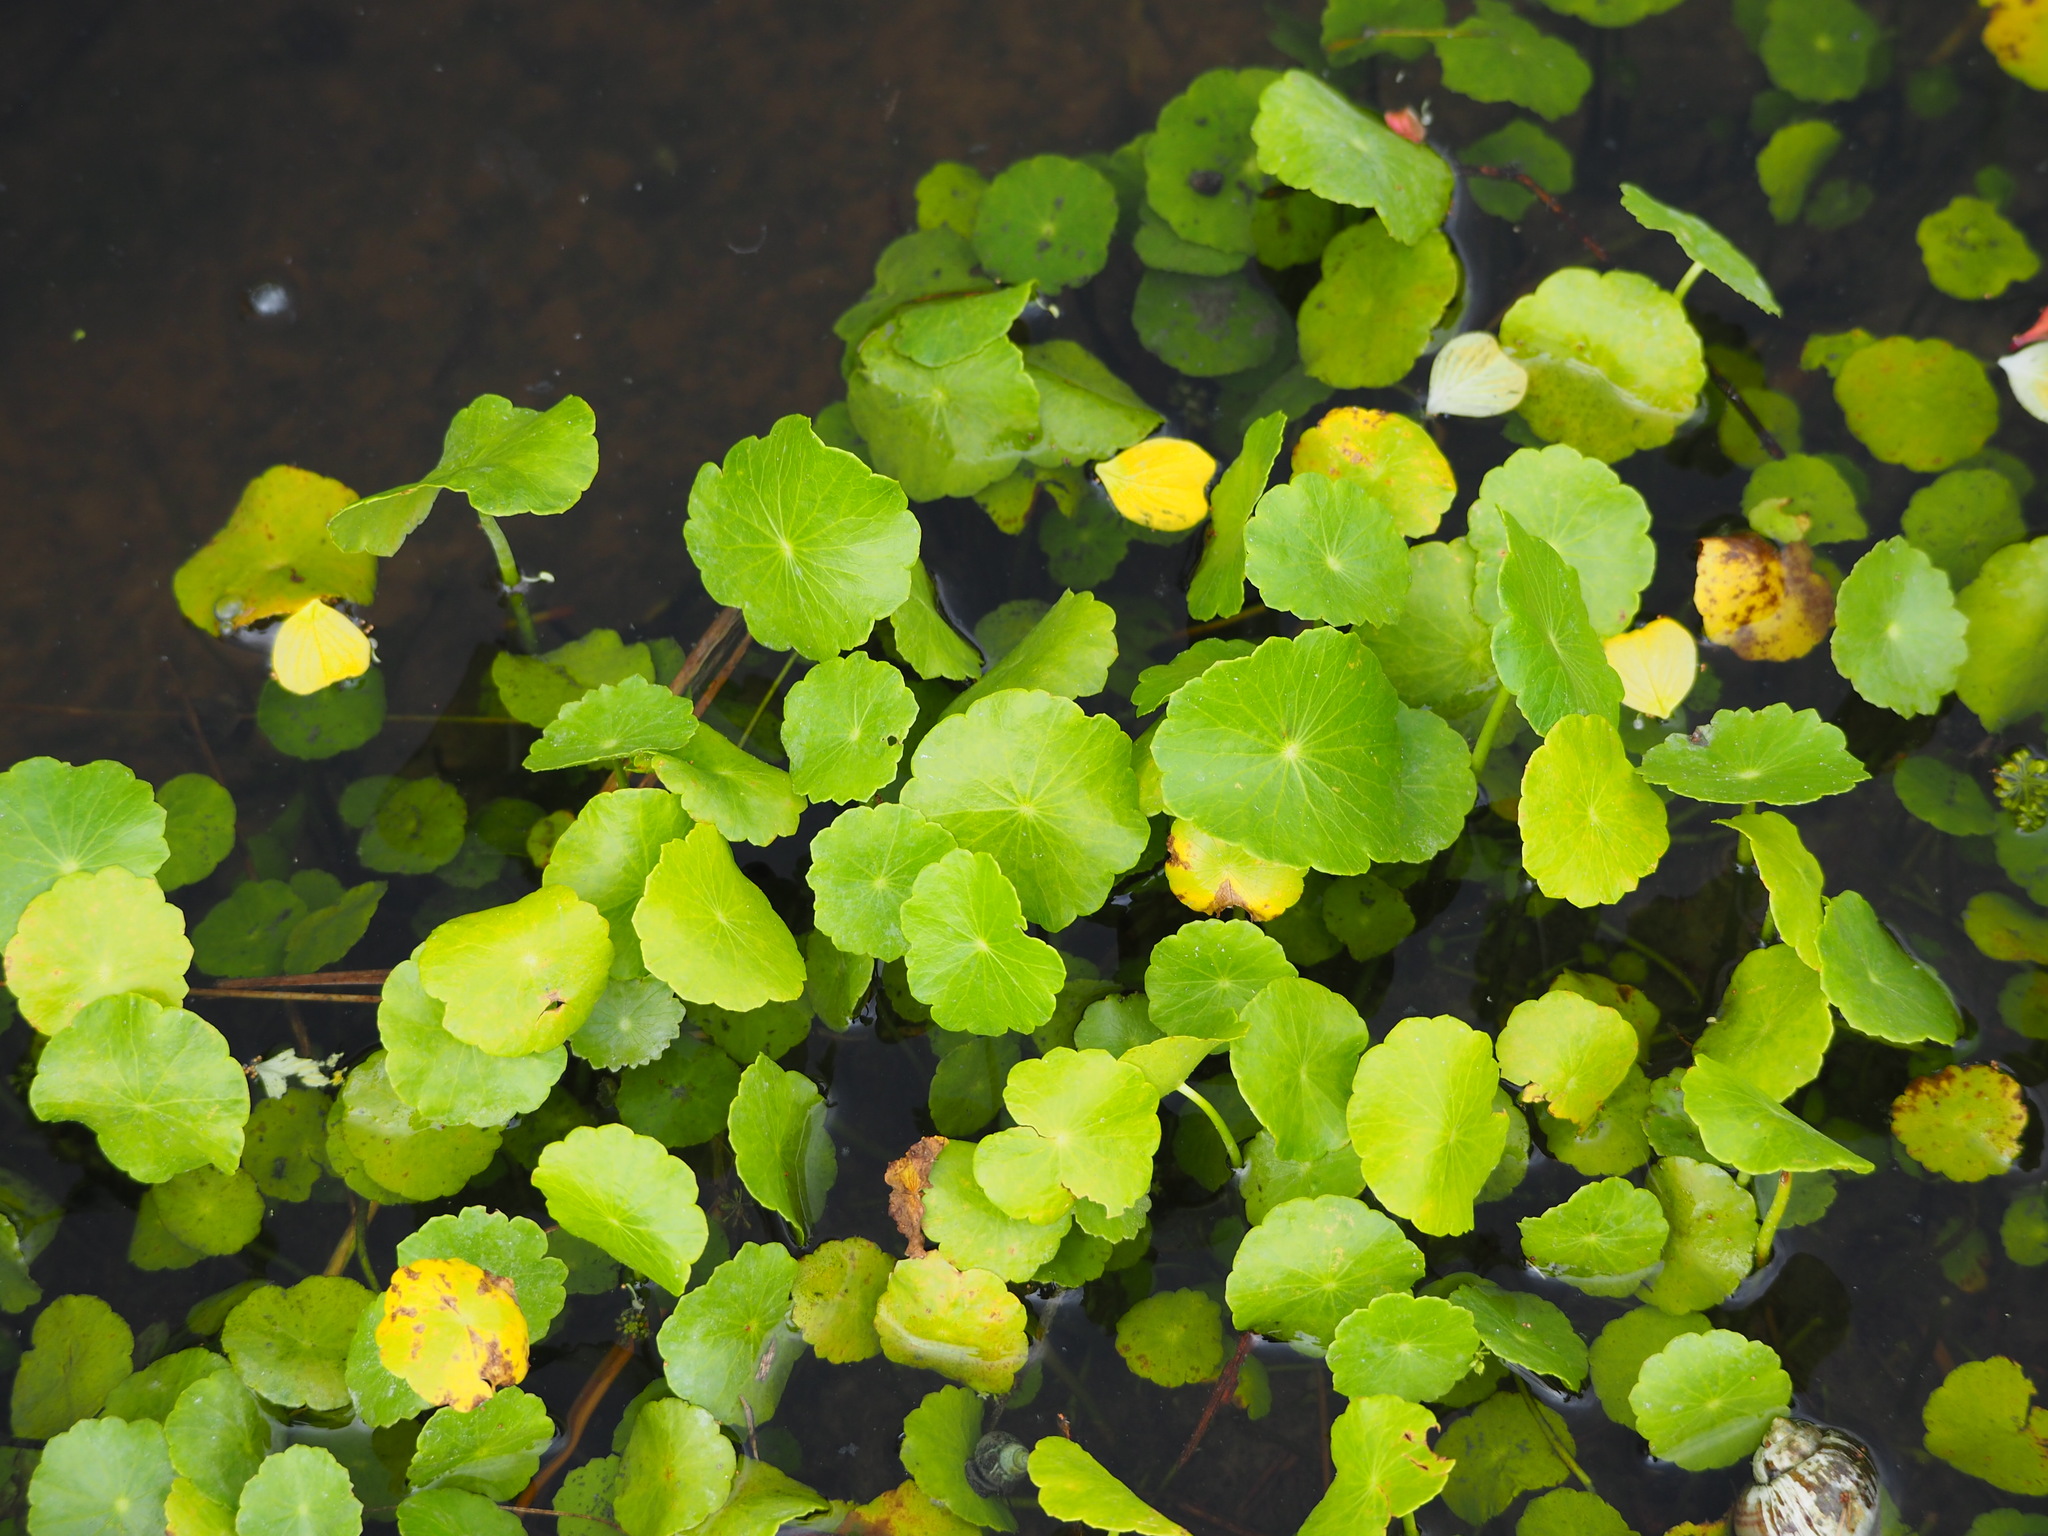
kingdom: Plantae
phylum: Tracheophyta
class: Magnoliopsida
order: Apiales
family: Araliaceae
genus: Hydrocotyle
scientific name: Hydrocotyle verticillata
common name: Whorled marshpennywort
